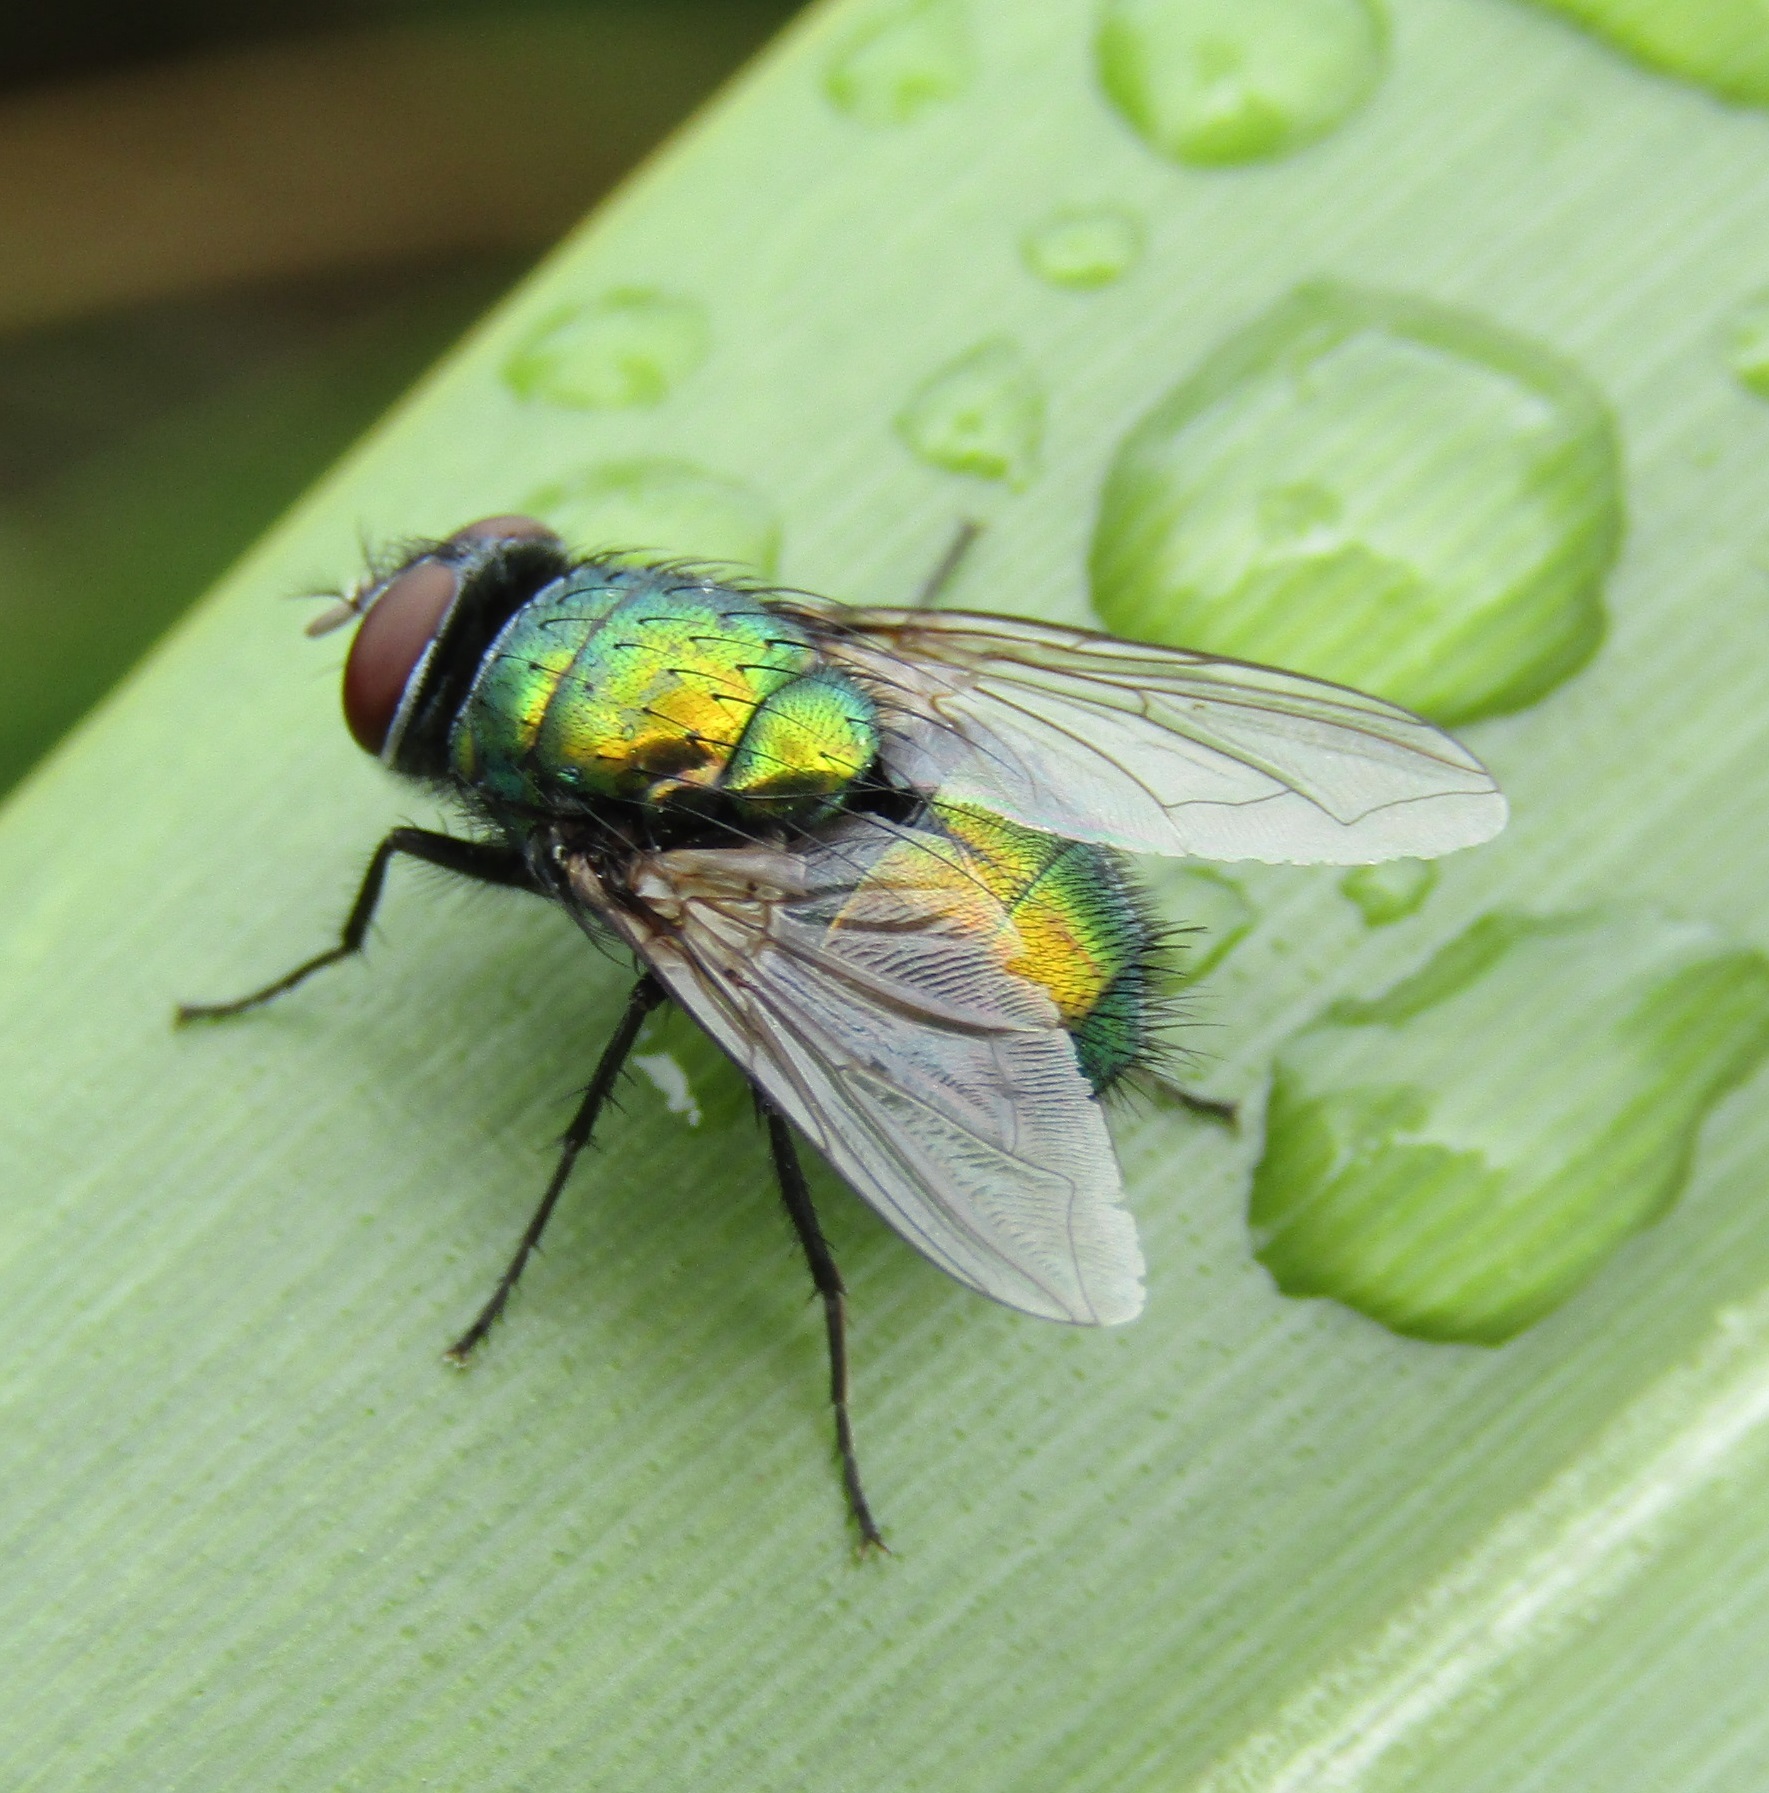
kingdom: Animalia
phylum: Arthropoda
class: Insecta
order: Diptera
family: Calliphoridae
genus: Lucilia
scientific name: Lucilia sericata
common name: Blow fly
